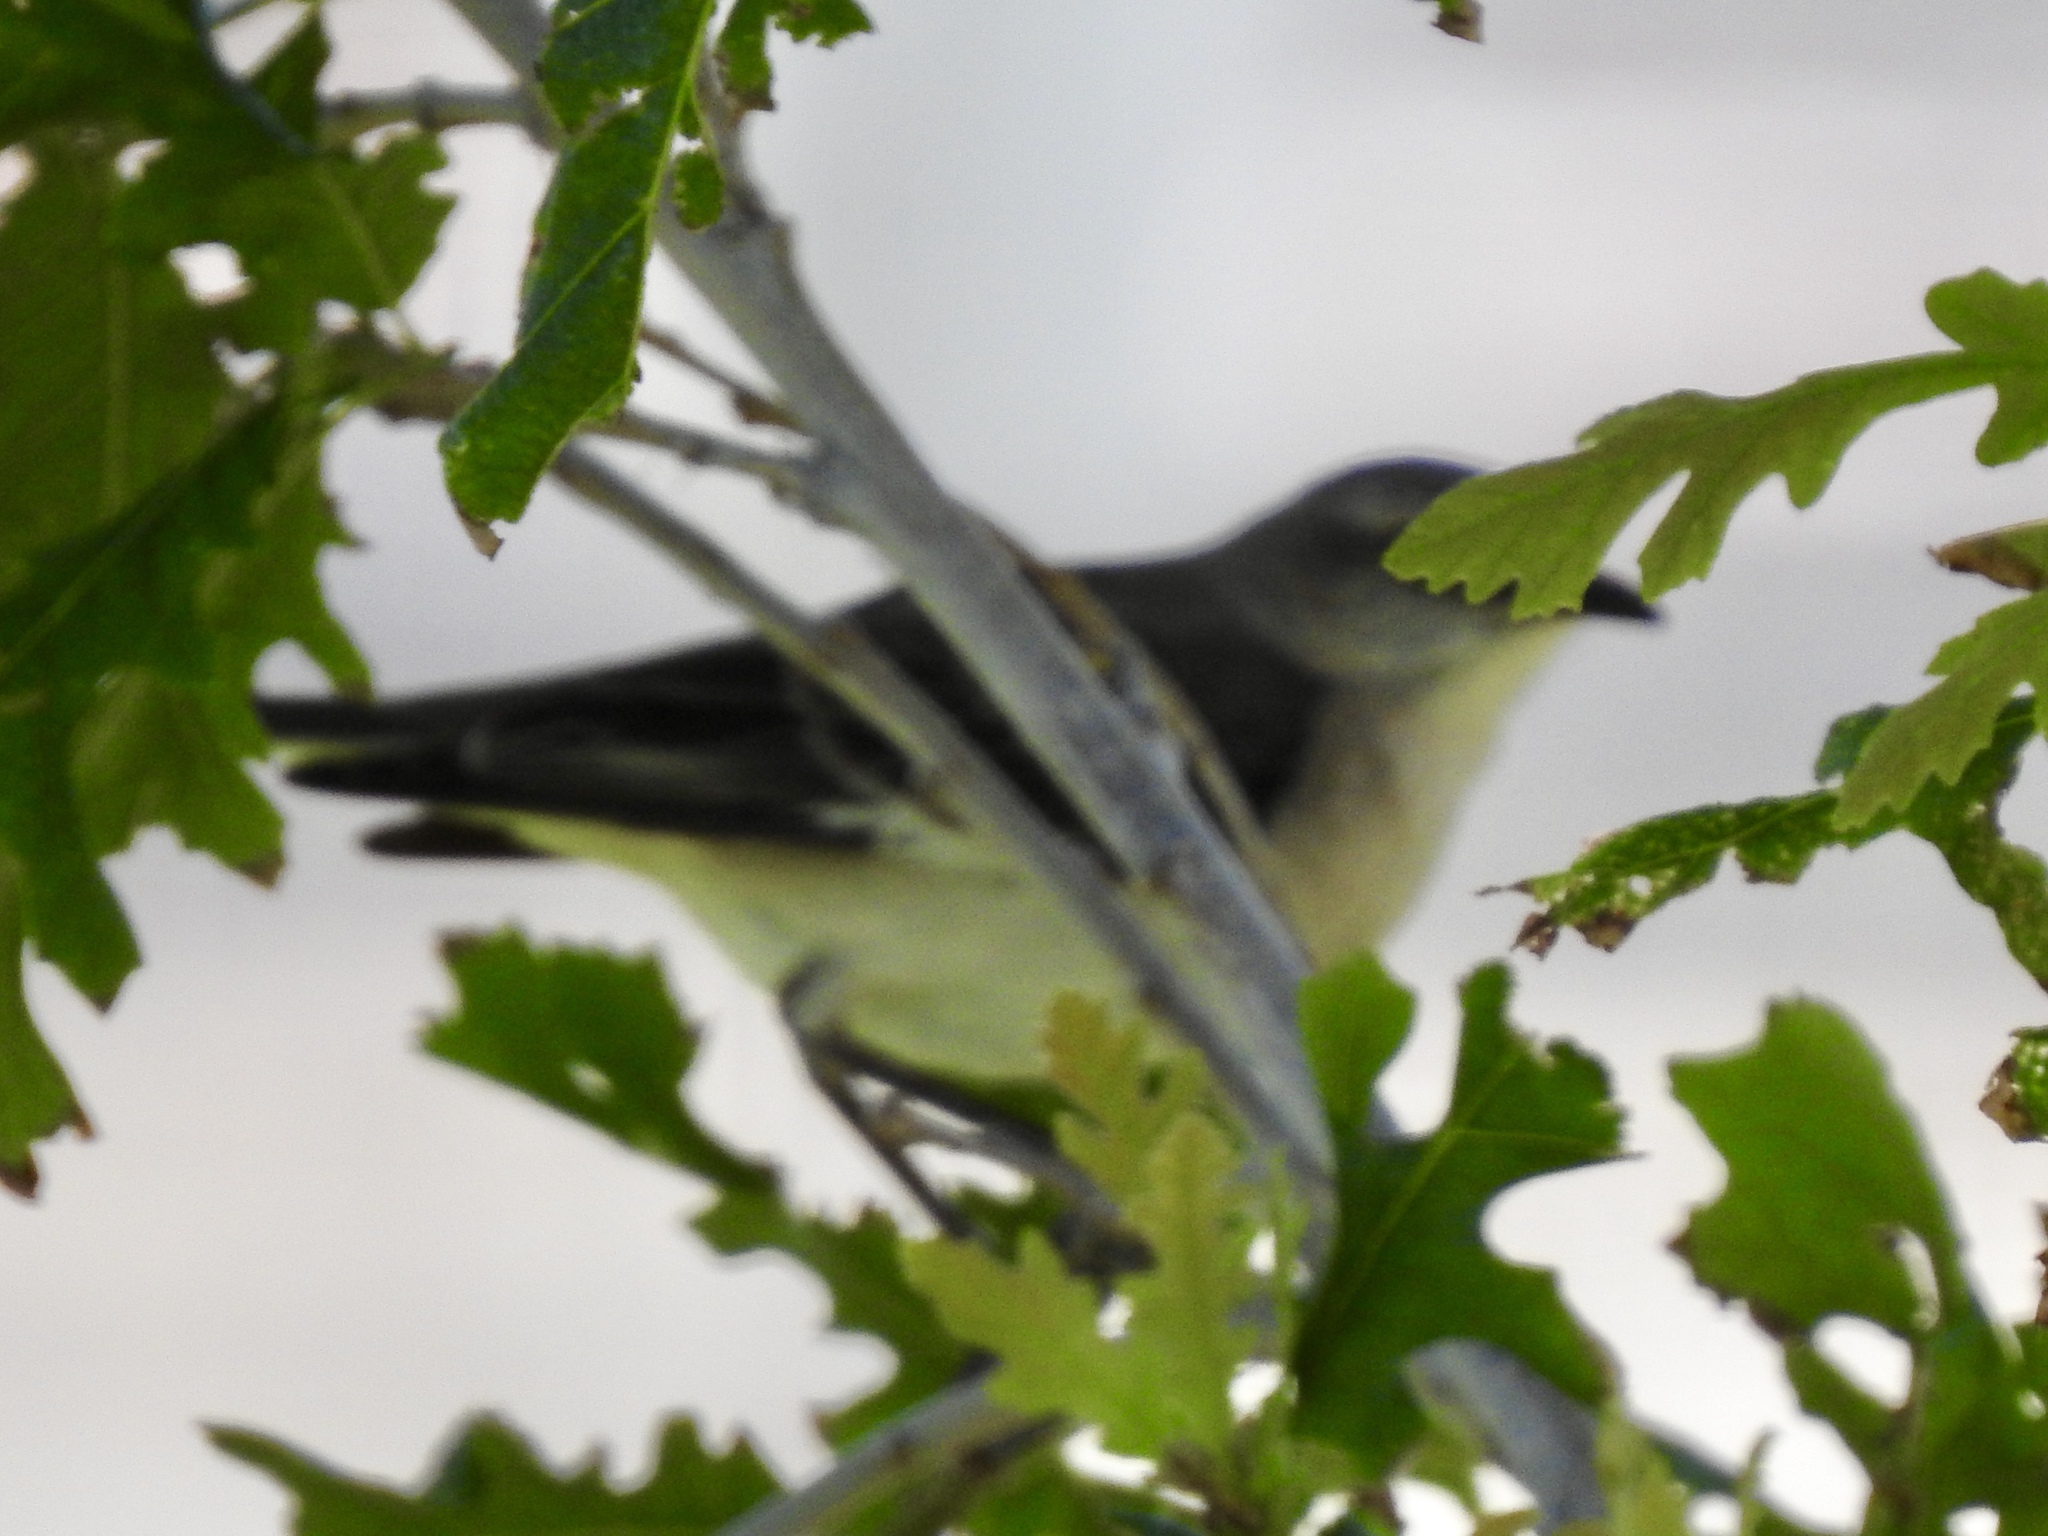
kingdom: Animalia
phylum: Chordata
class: Aves
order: Passeriformes
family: Mimidae
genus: Mimus
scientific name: Mimus polyglottos
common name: Northern mockingbird
